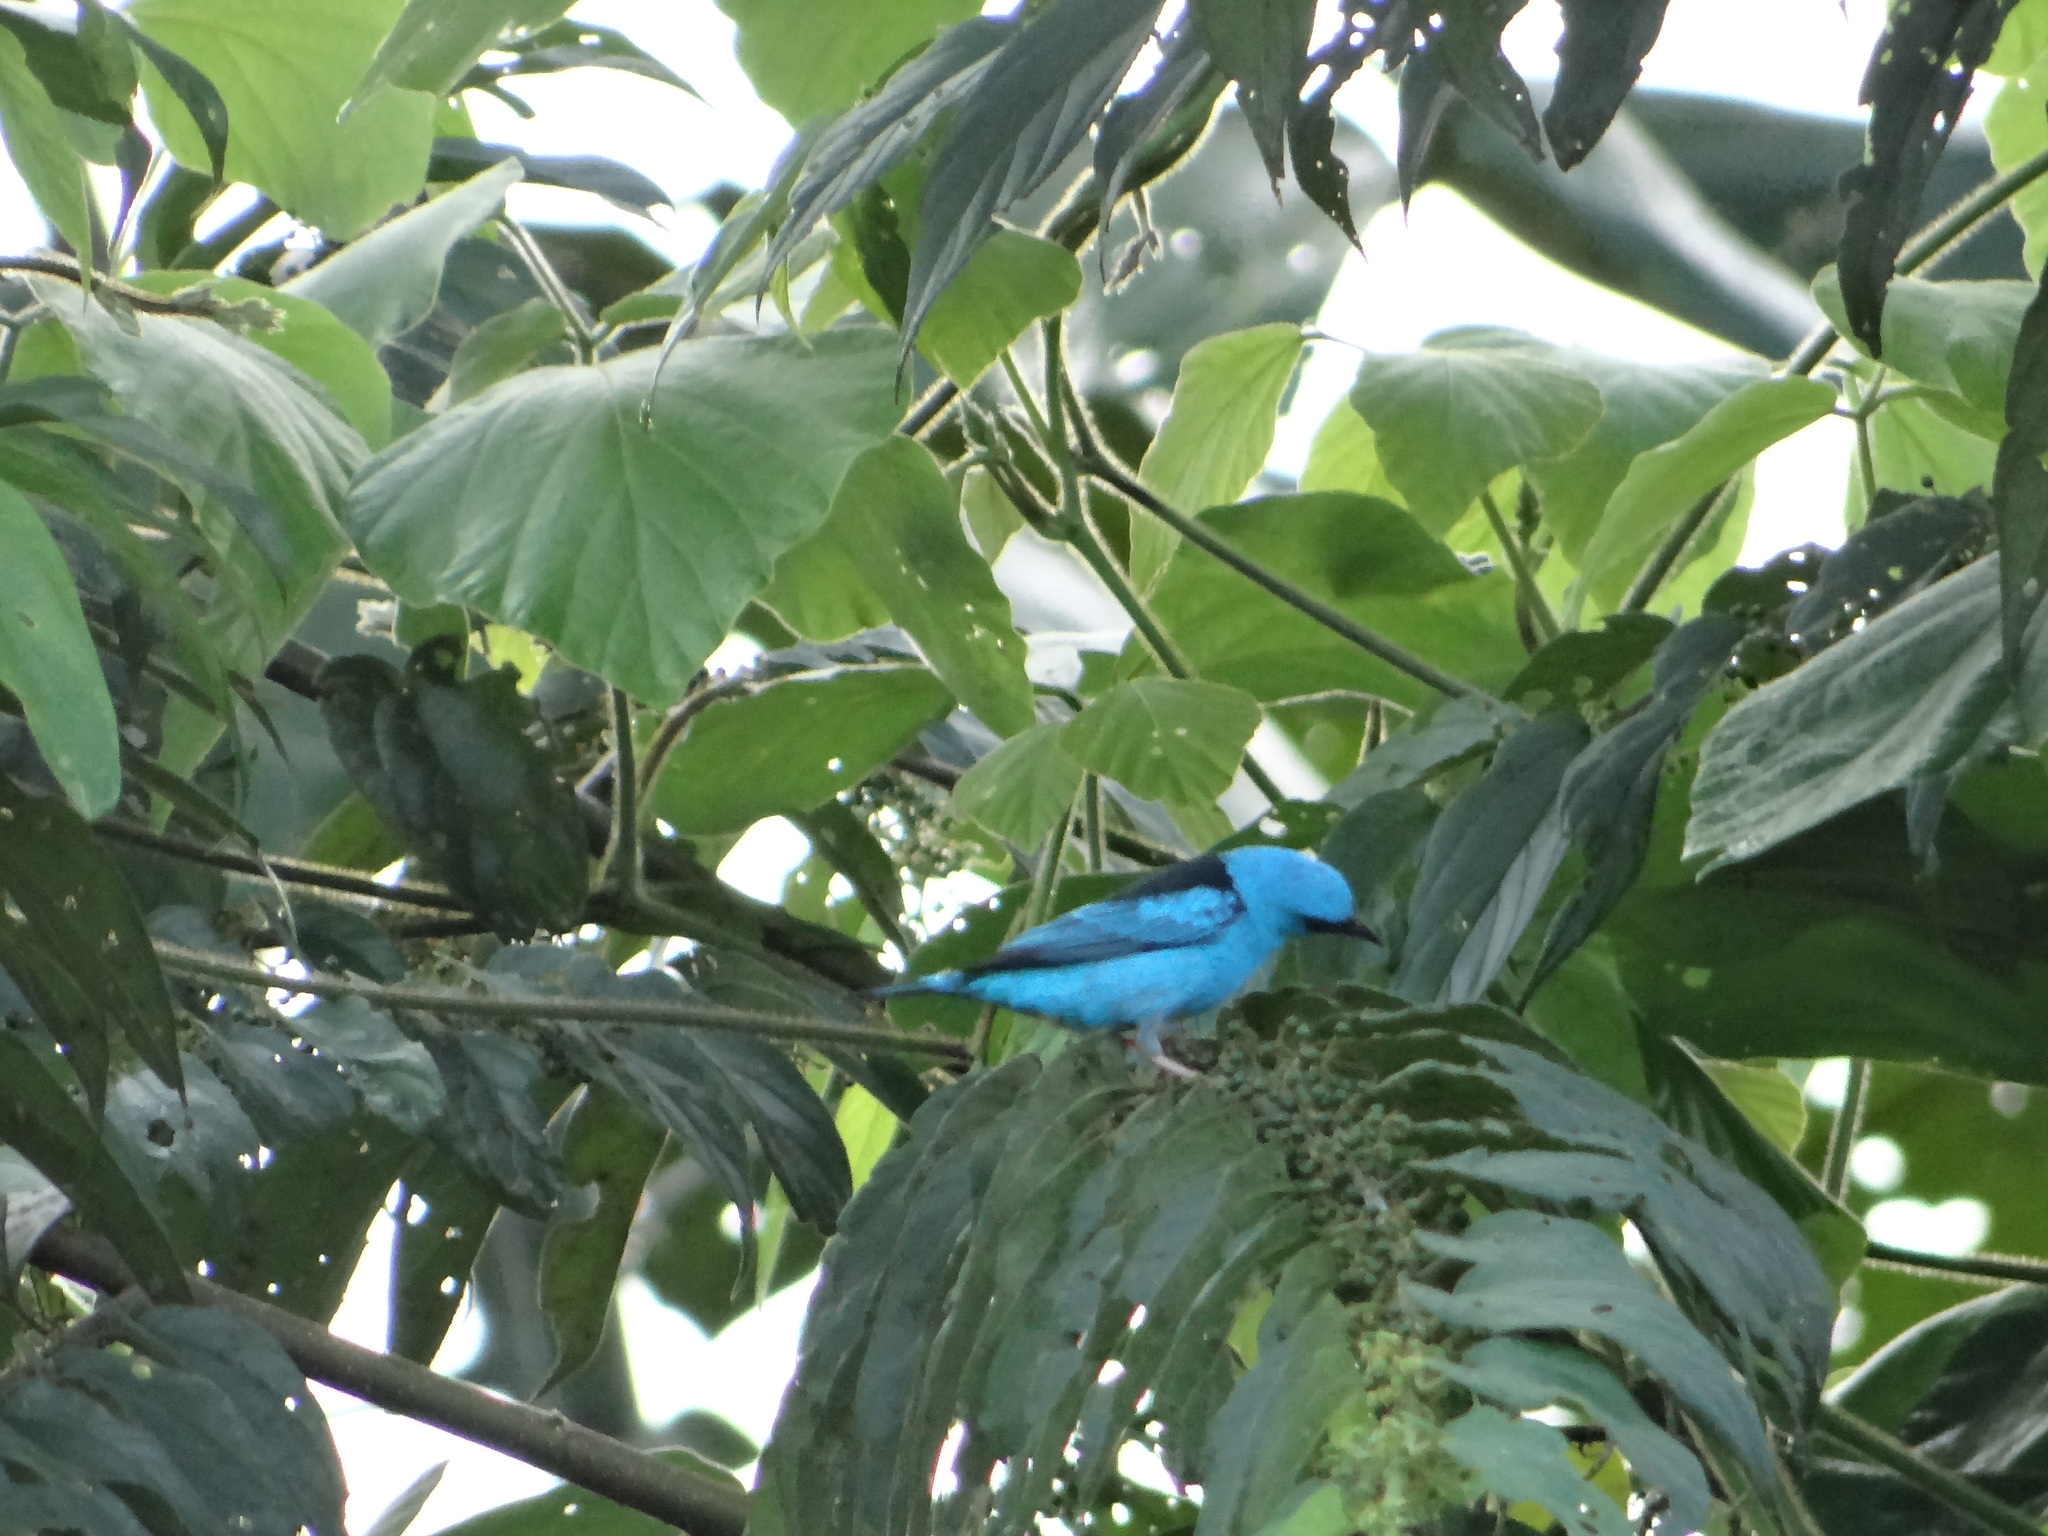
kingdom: Animalia
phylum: Chordata
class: Aves
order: Passeriformes
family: Thraupidae
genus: Dacnis
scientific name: Dacnis cayana
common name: Blue dacnis
